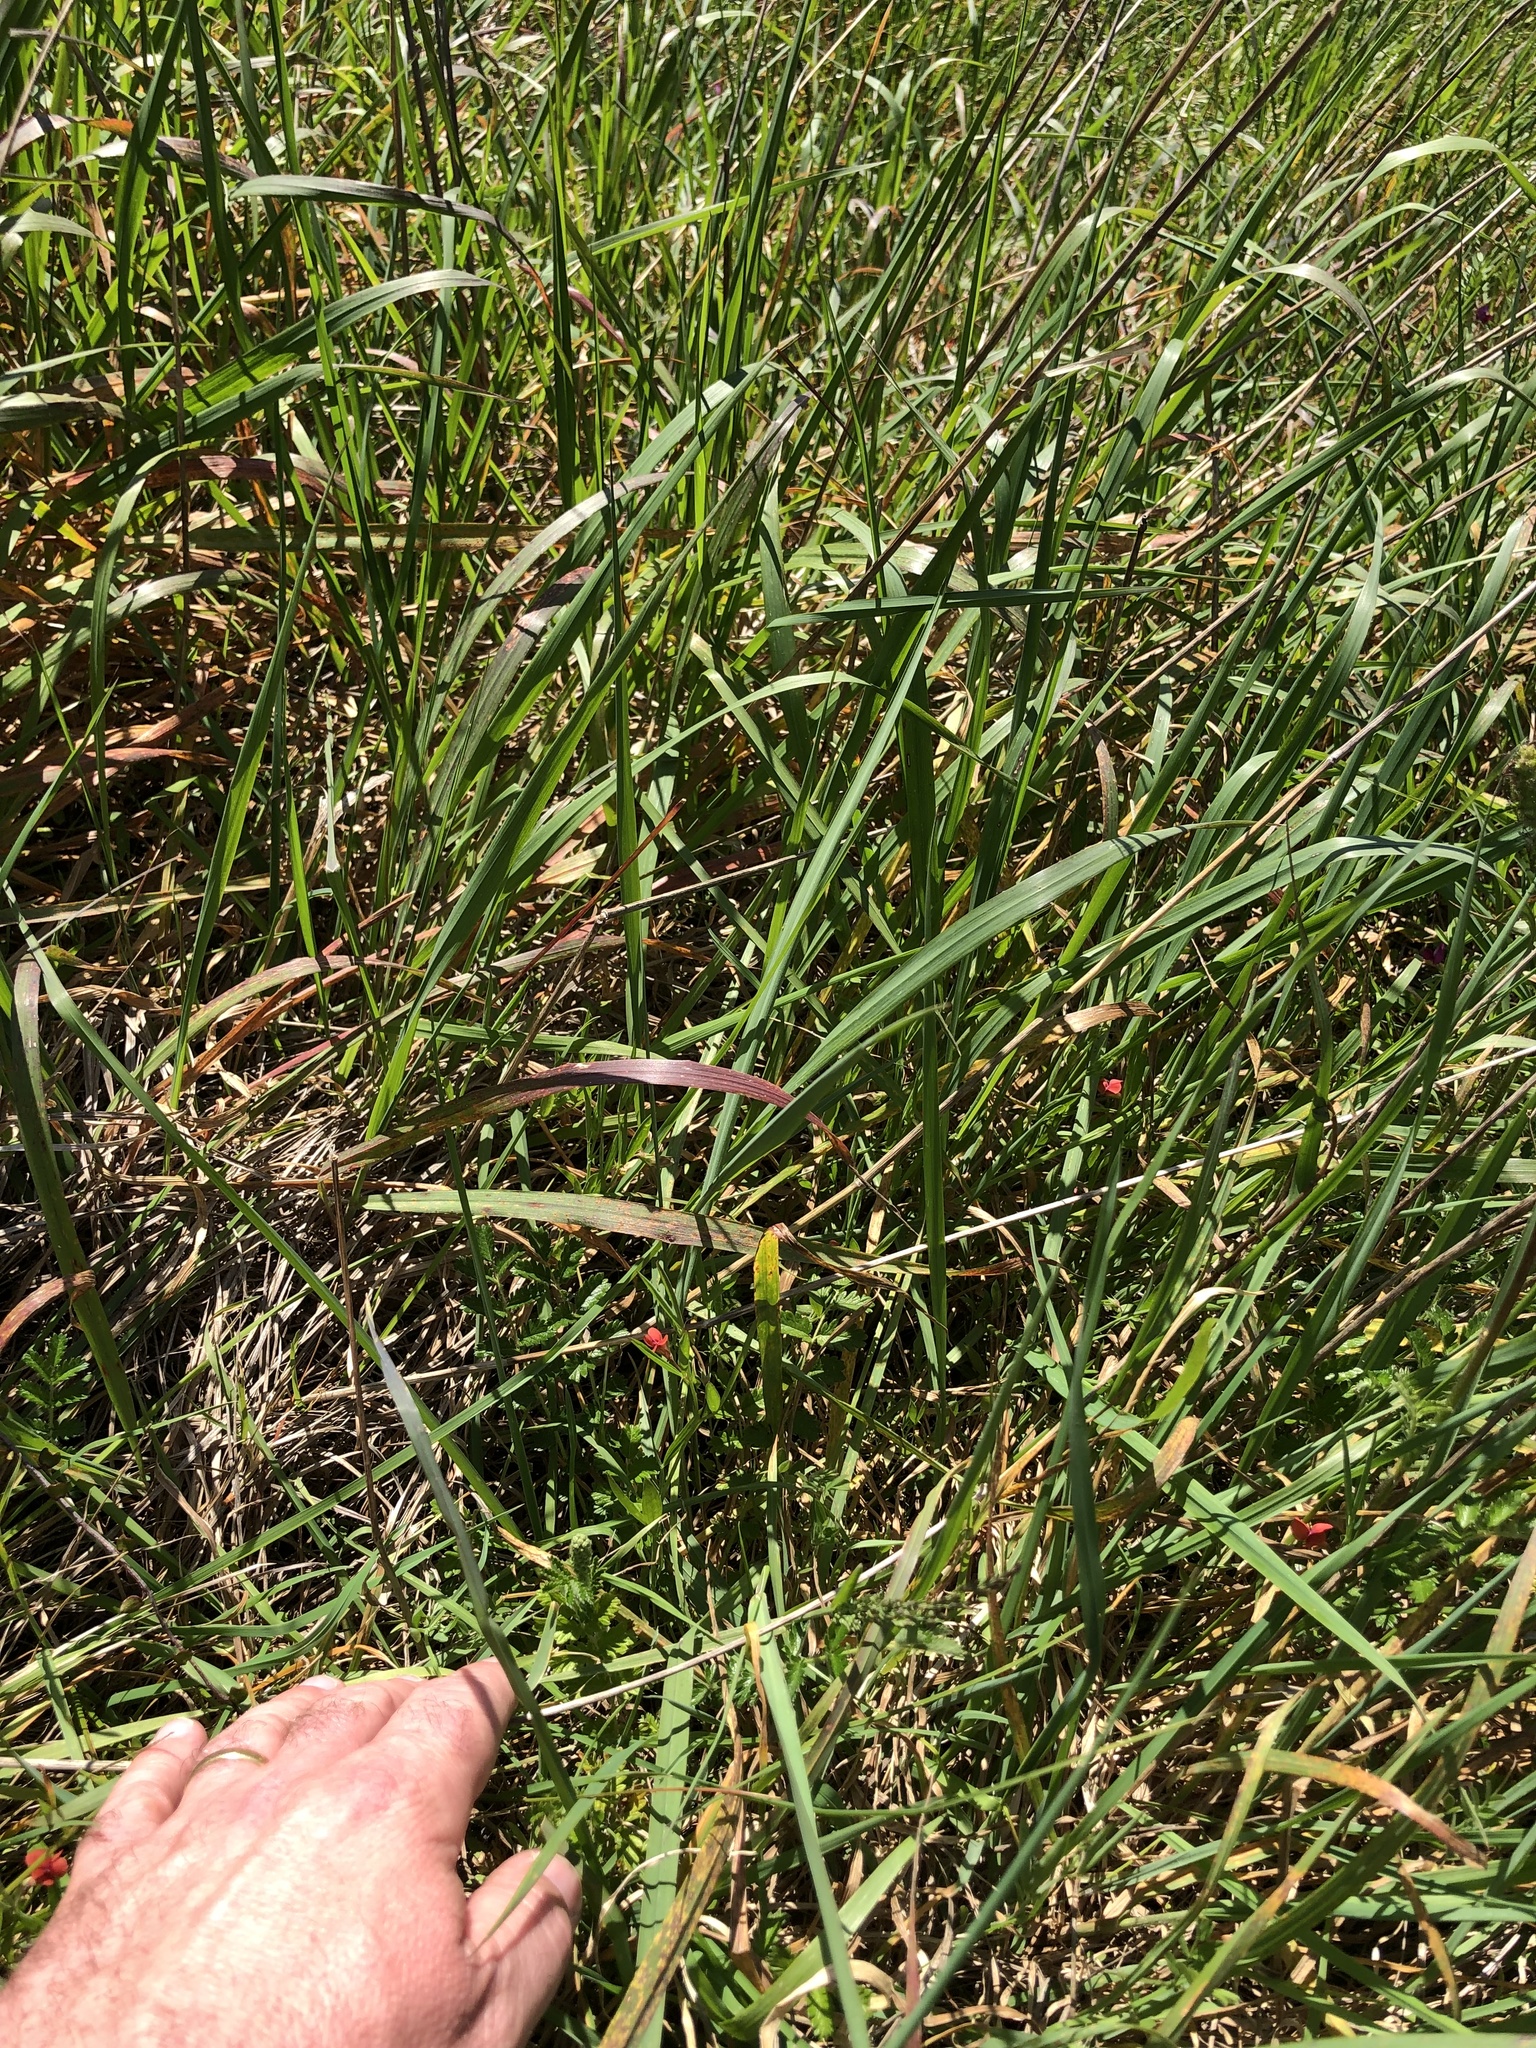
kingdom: Plantae
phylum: Tracheophyta
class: Magnoliopsida
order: Fabales
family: Fabaceae
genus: Lathyrus
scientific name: Lathyrus sphaericus
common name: Grass pea
